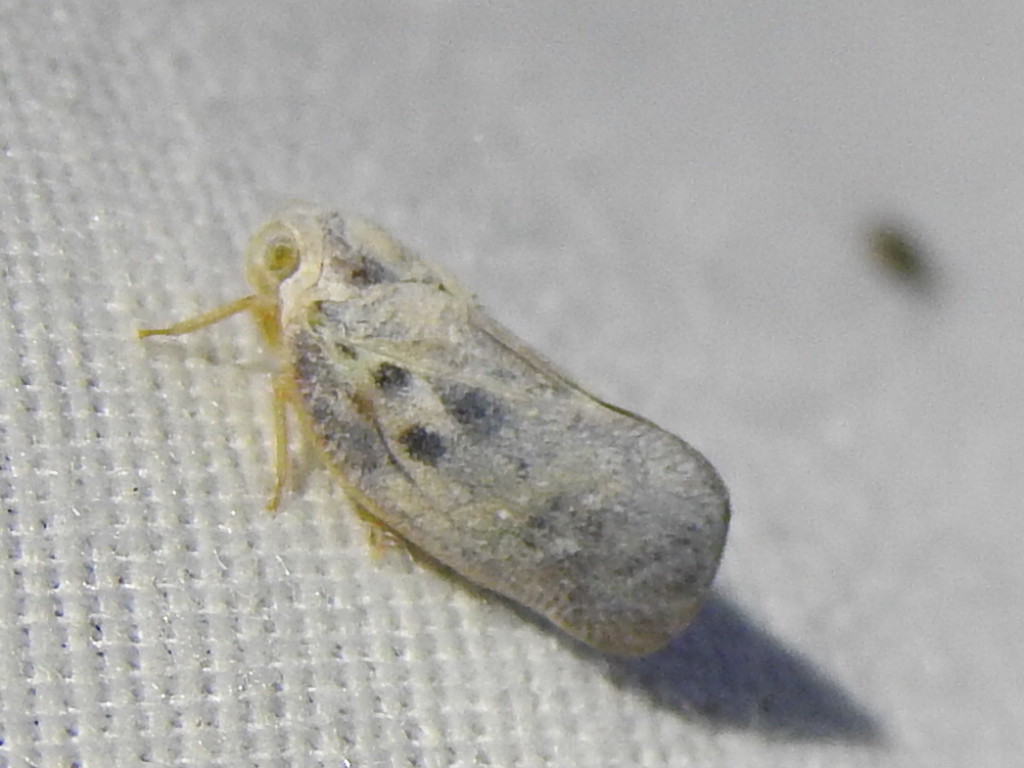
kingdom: Animalia
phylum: Arthropoda
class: Insecta
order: Hemiptera
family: Flatidae
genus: Metcalfa
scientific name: Metcalfa pruinosa
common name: Citrus flatid planthopper
